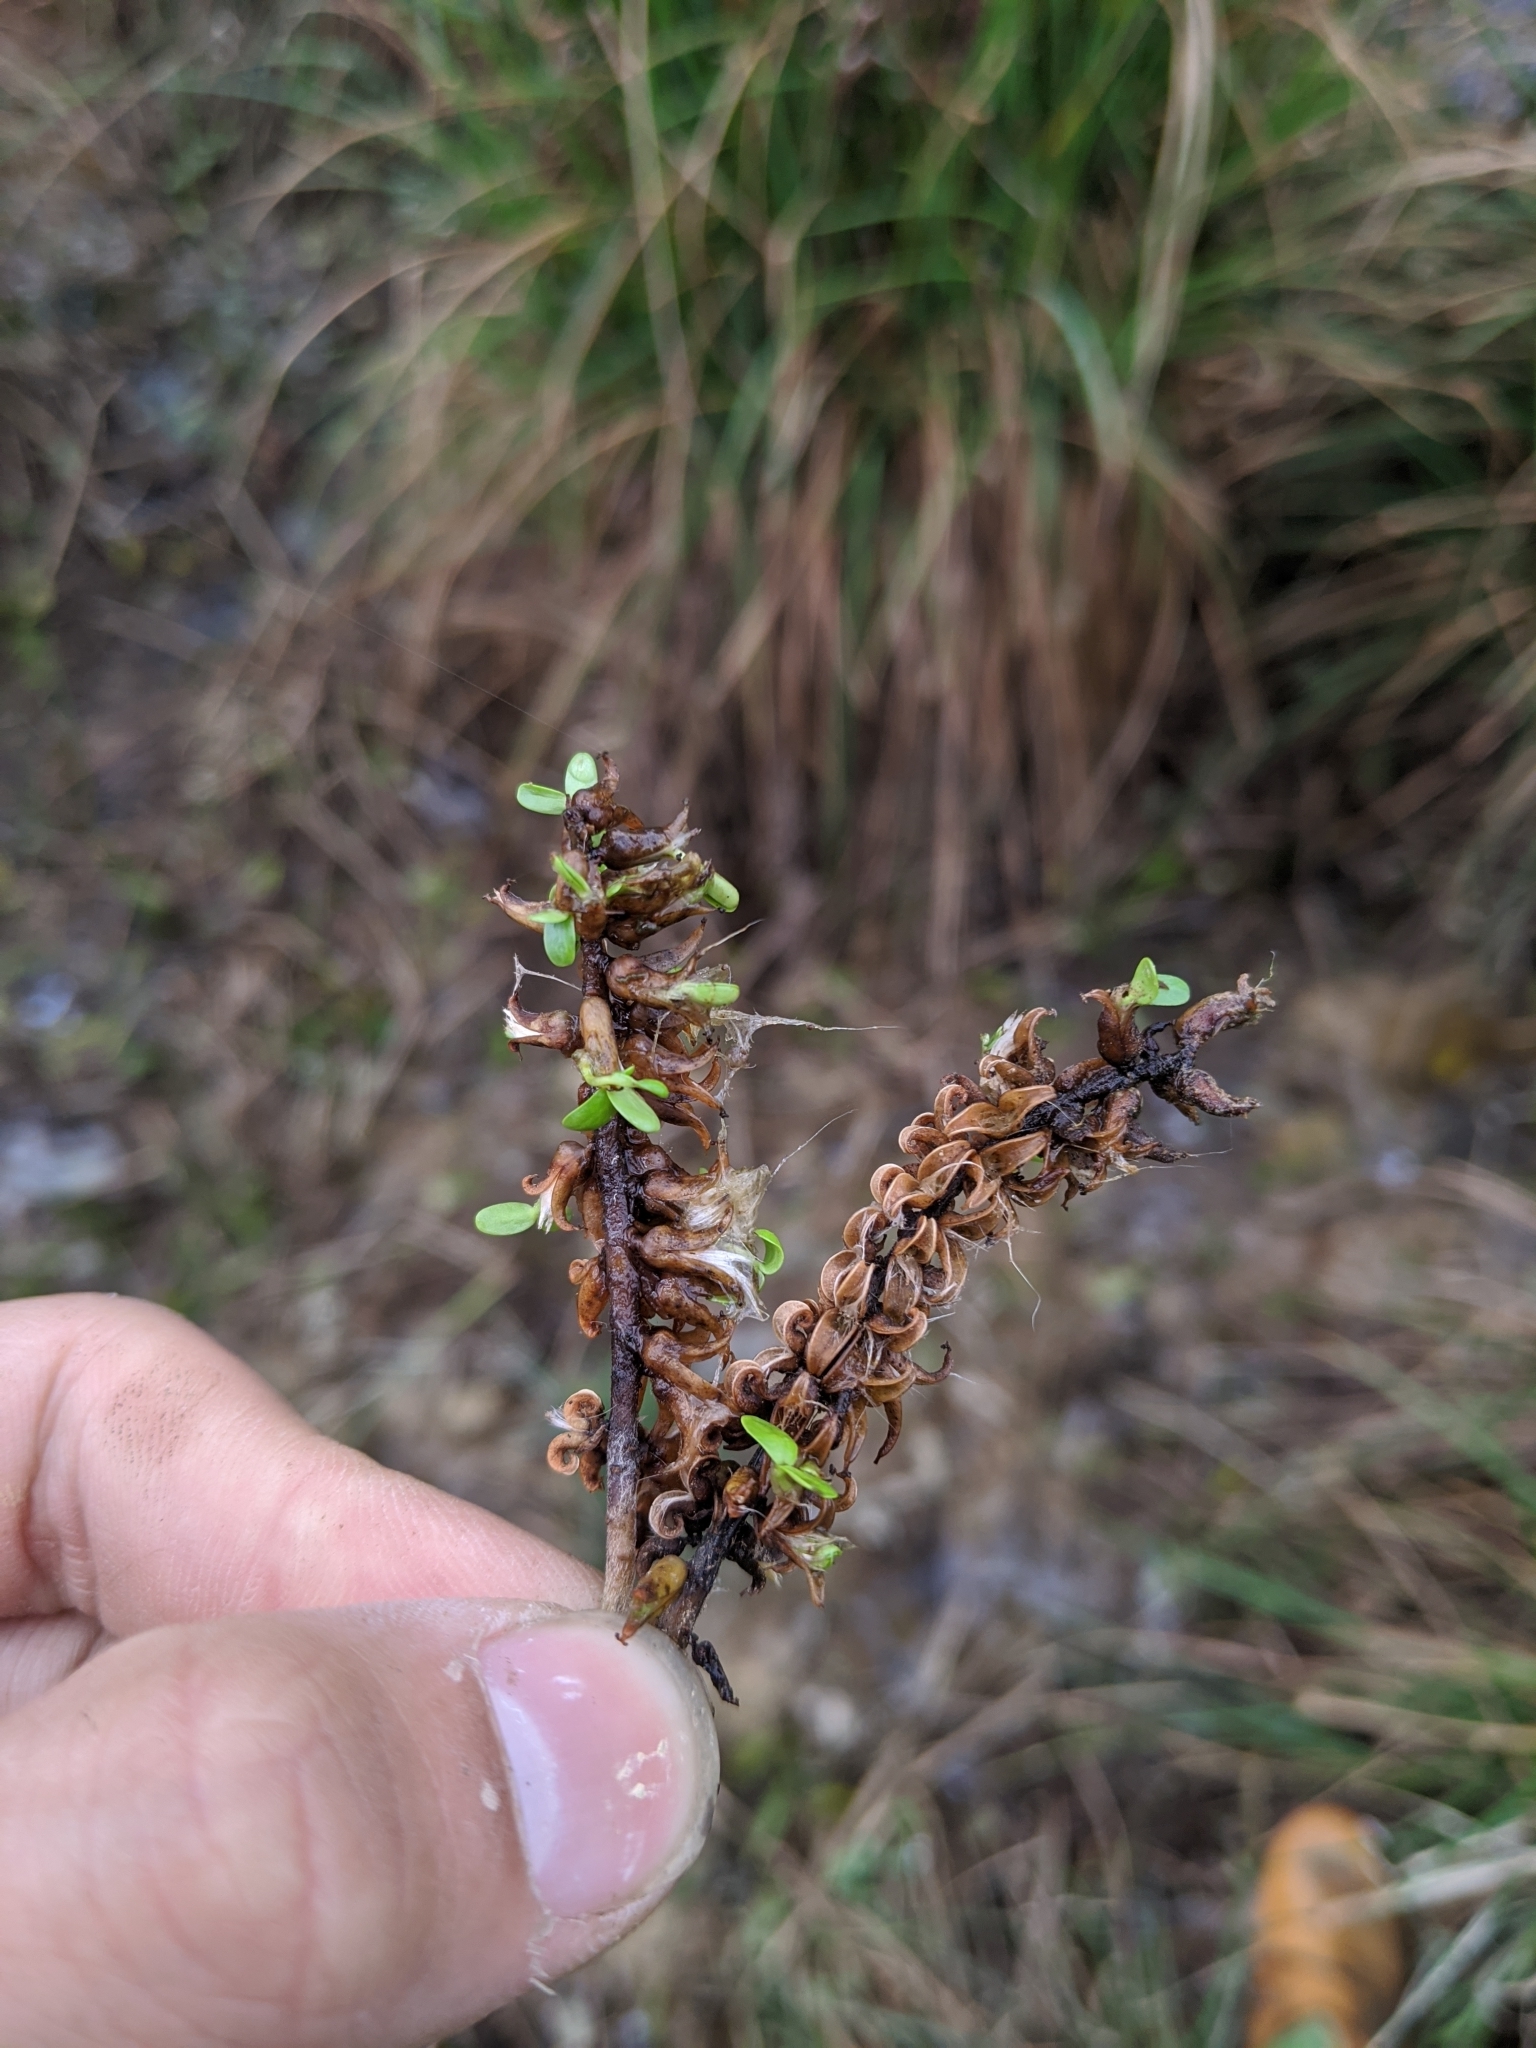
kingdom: Plantae
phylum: Tracheophyta
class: Magnoliopsida
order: Malpighiales
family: Salicaceae
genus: Salix
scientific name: Salix kusanoi
